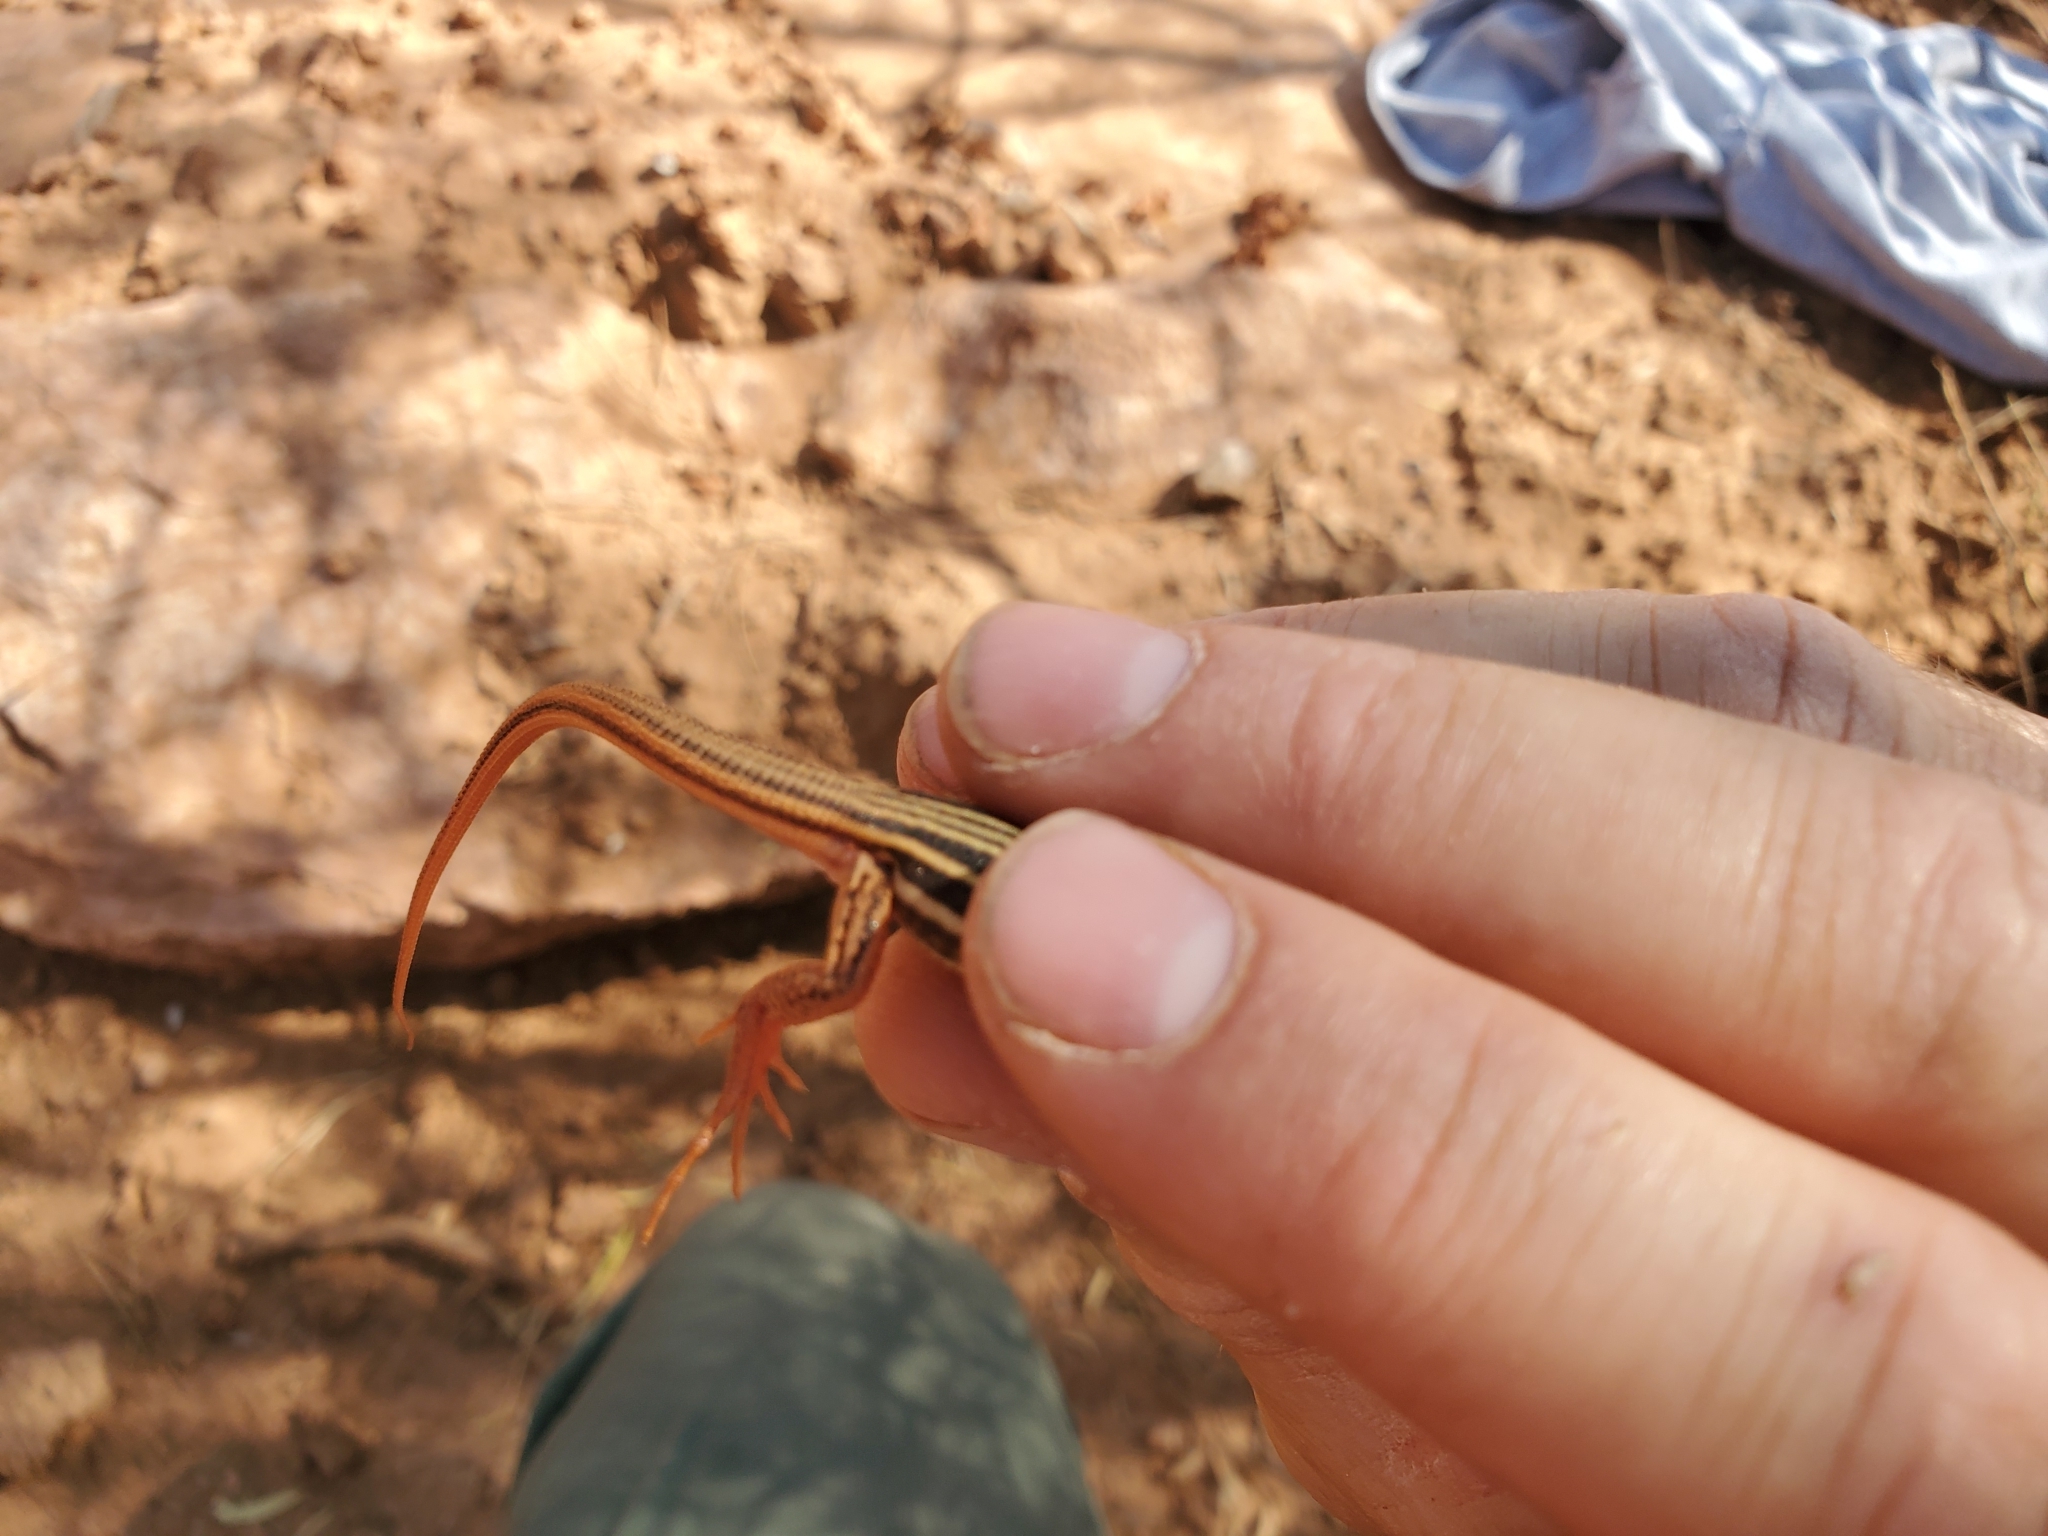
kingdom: Animalia
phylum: Chordata
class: Squamata
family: Teiidae
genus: Aspidoscelis
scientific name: Aspidoscelis gularis
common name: Eastern spotted whiptail
